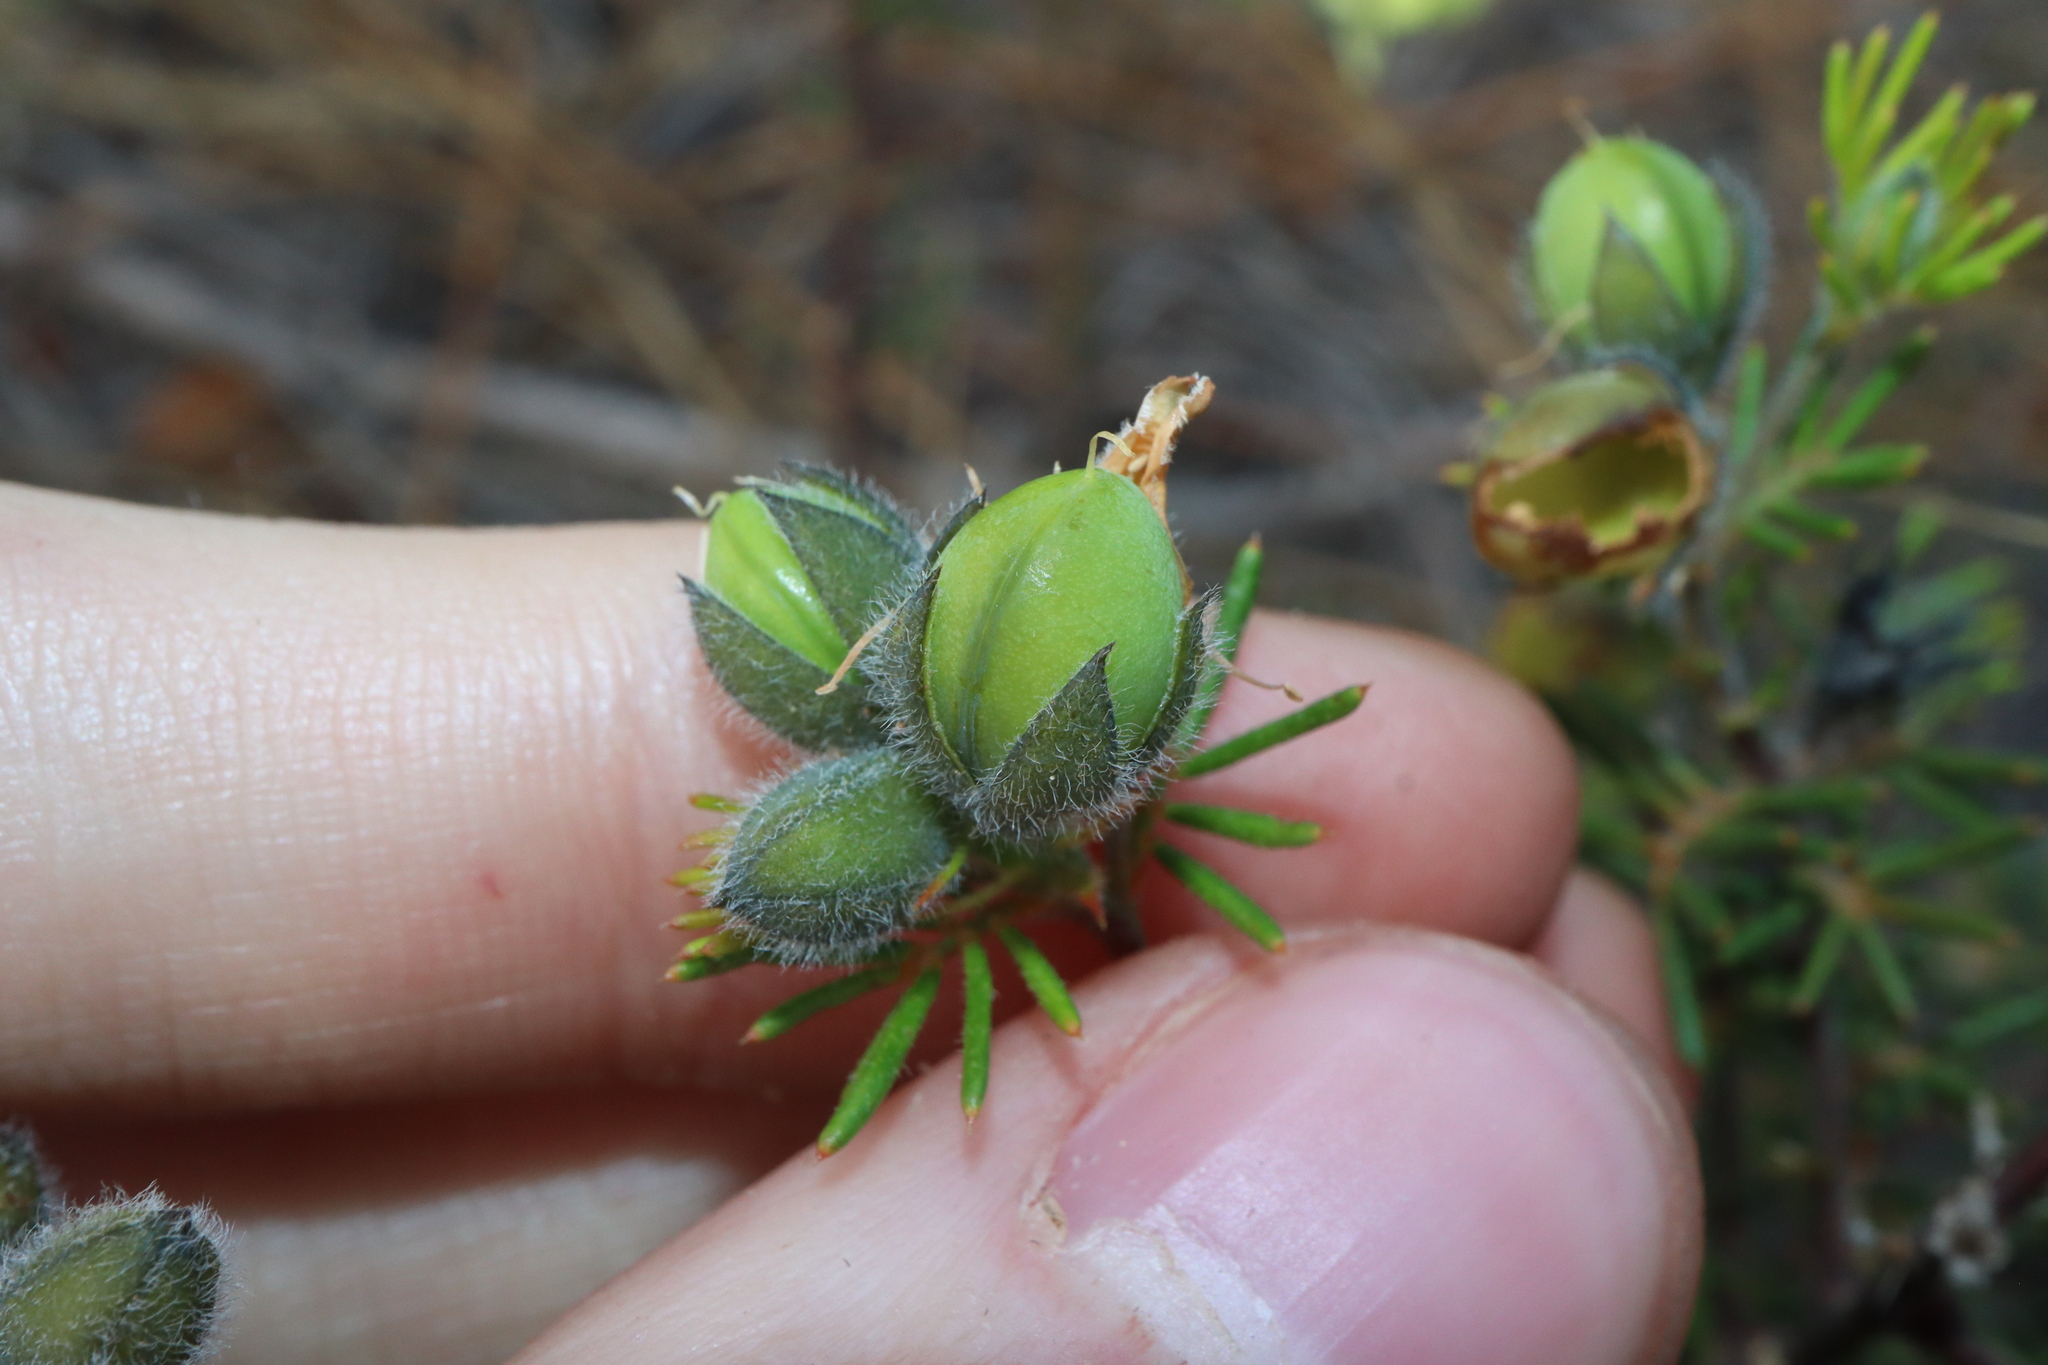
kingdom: Plantae
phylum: Tracheophyta
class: Magnoliopsida
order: Fabales
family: Fabaceae
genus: Gompholobium
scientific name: Gompholobium tomentosum
